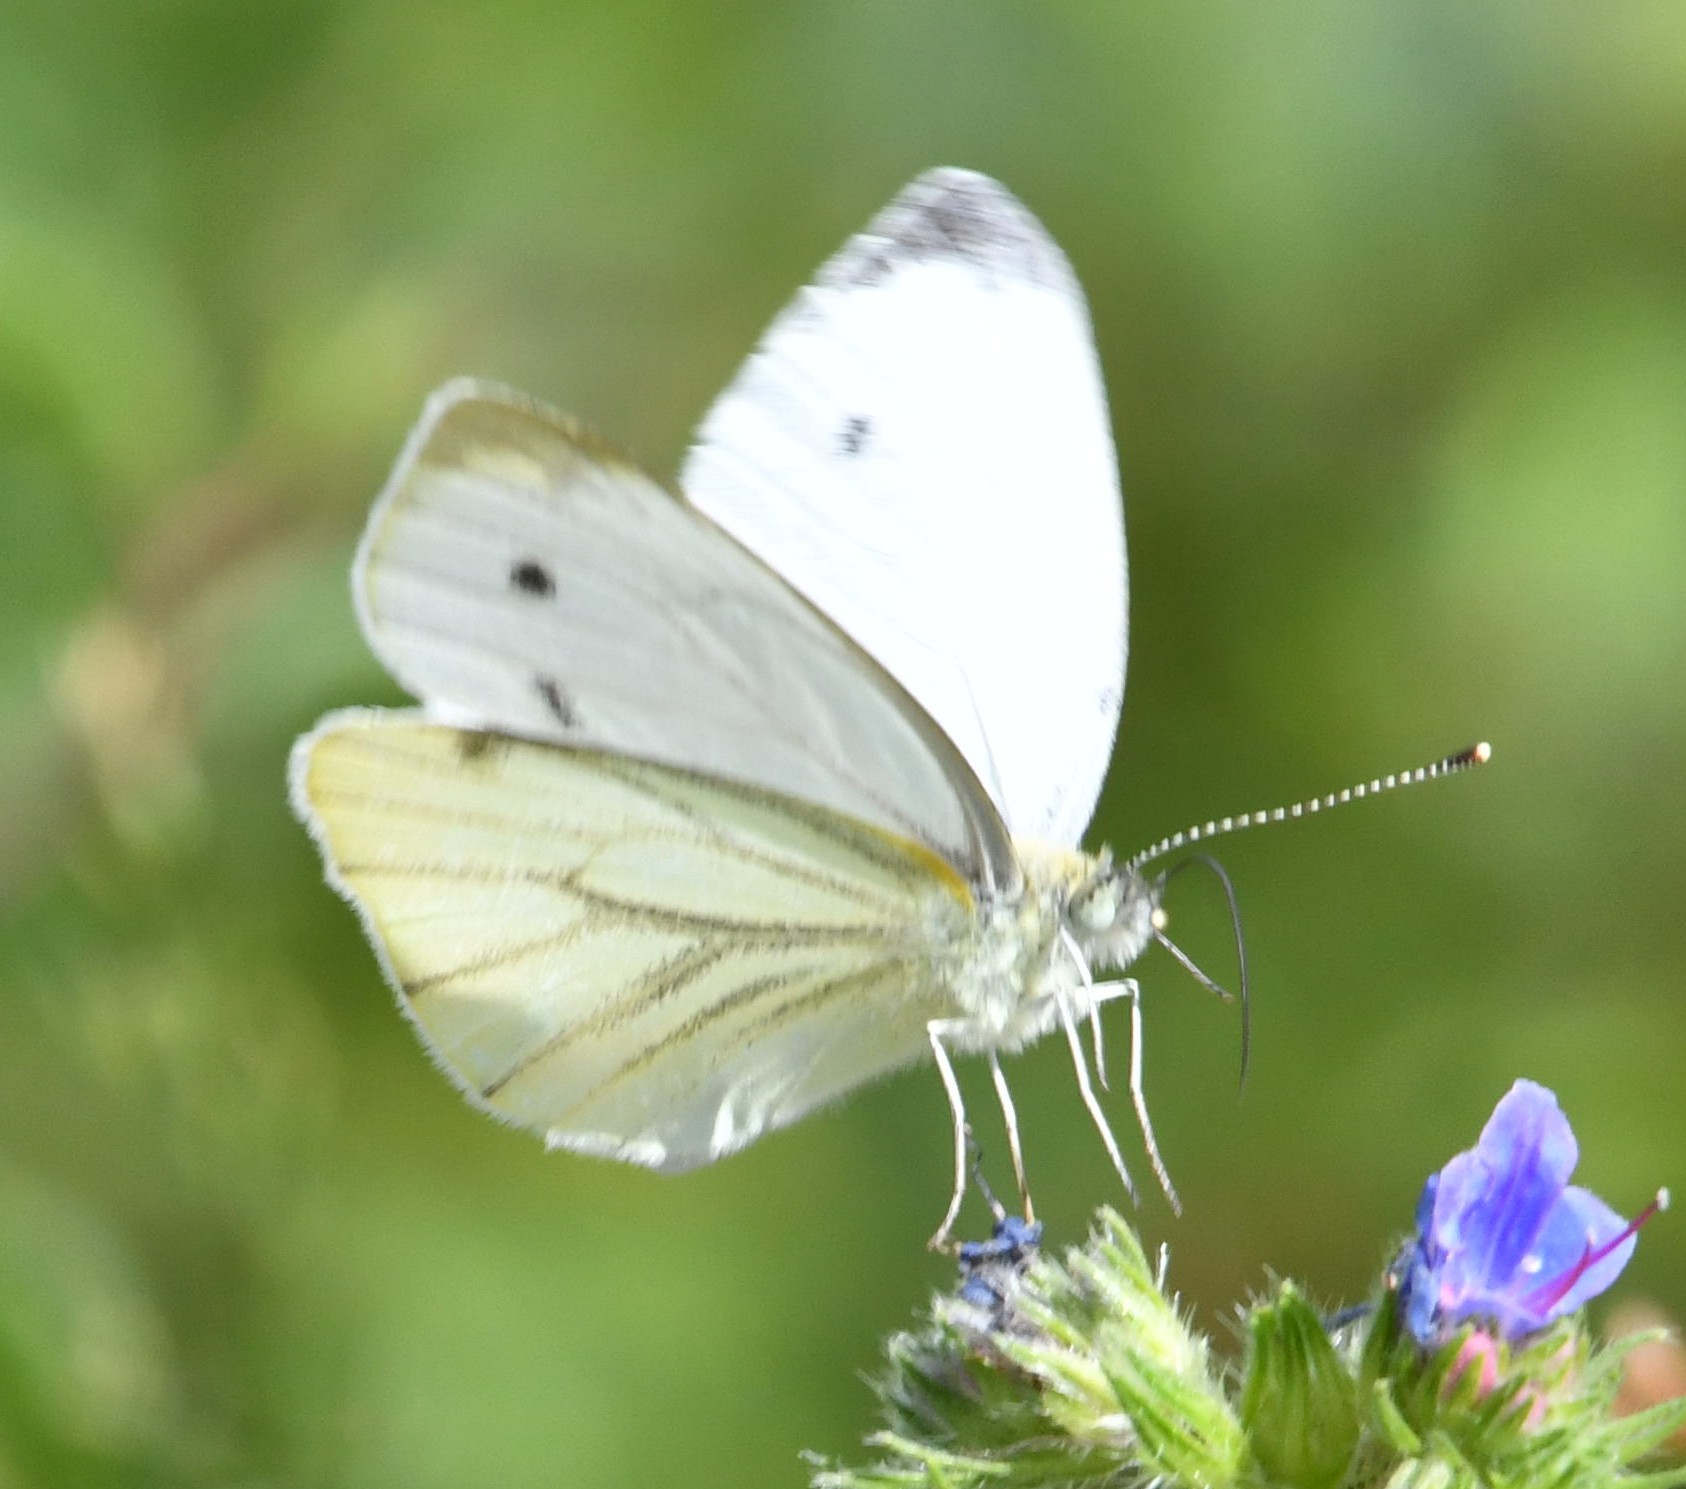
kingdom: Animalia
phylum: Arthropoda
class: Insecta
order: Lepidoptera
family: Pieridae
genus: Pieris
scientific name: Pieris napi
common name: Green-veined white
